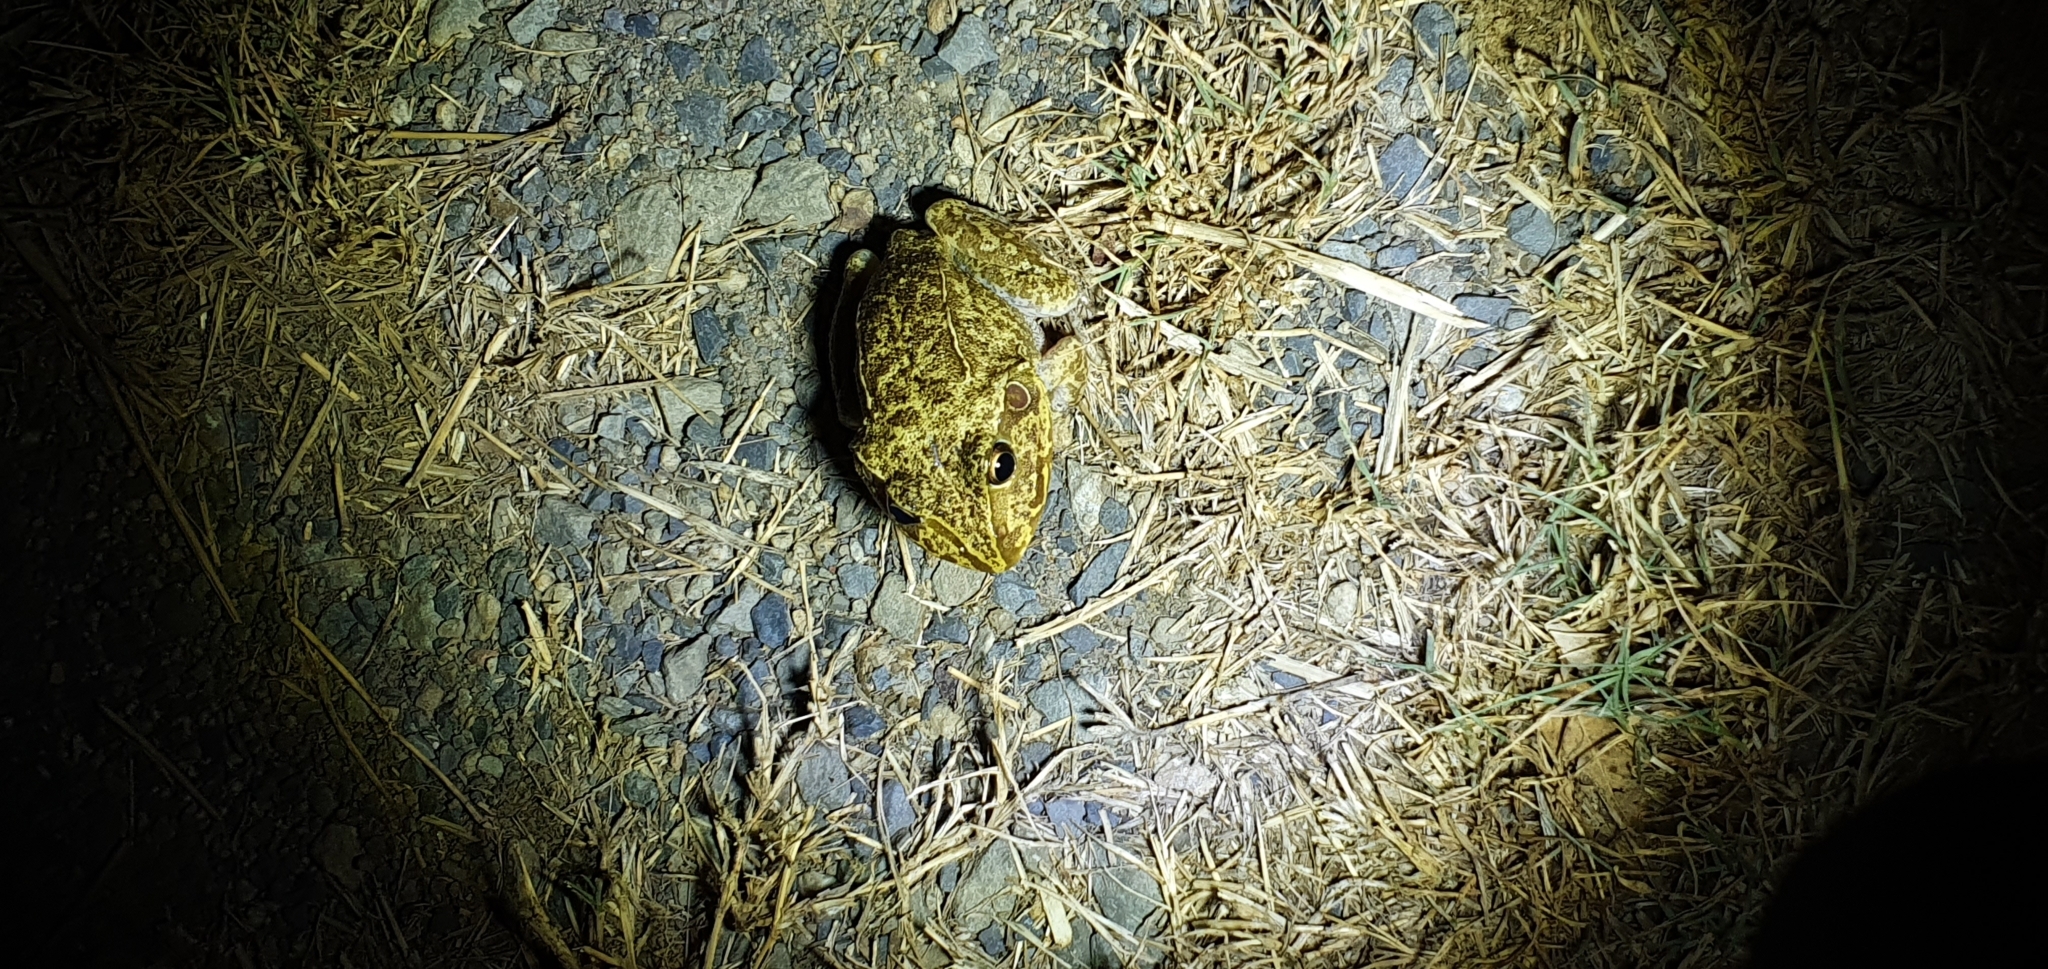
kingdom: Animalia
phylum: Chordata
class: Amphibia
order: Anura
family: Pelodryadidae
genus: Ranoidea
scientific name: Ranoidea novaehollandiae
